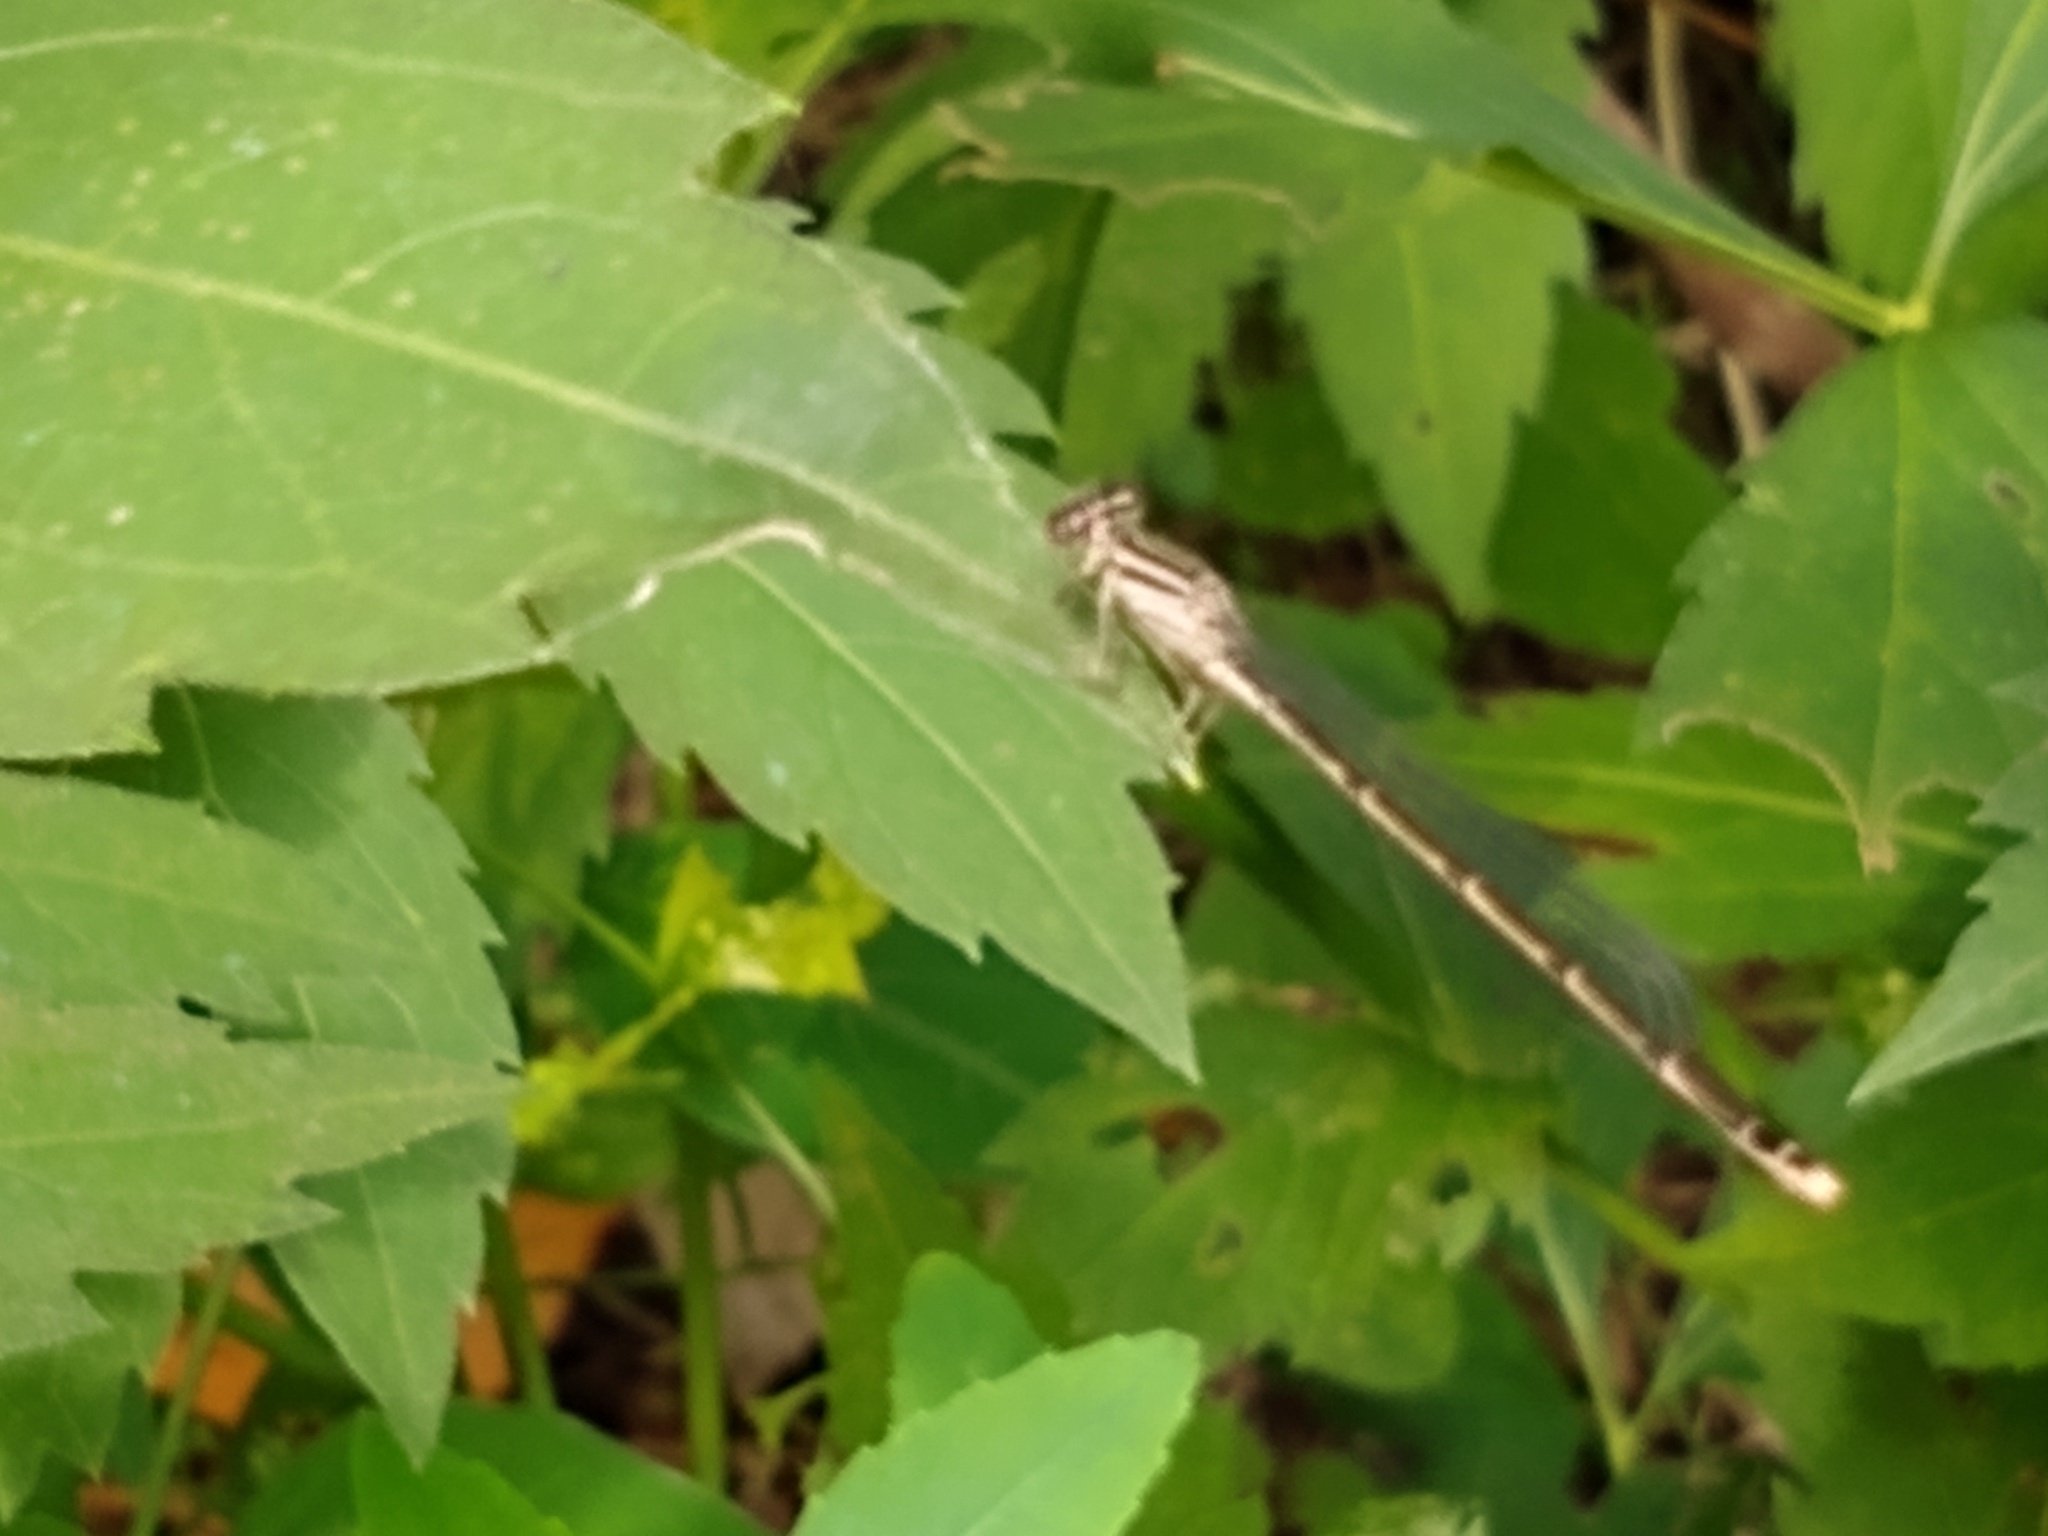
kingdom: Animalia
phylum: Arthropoda
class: Insecta
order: Odonata
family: Coenagrionidae
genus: Enallagma
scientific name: Enallagma durum
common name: Big bluet
